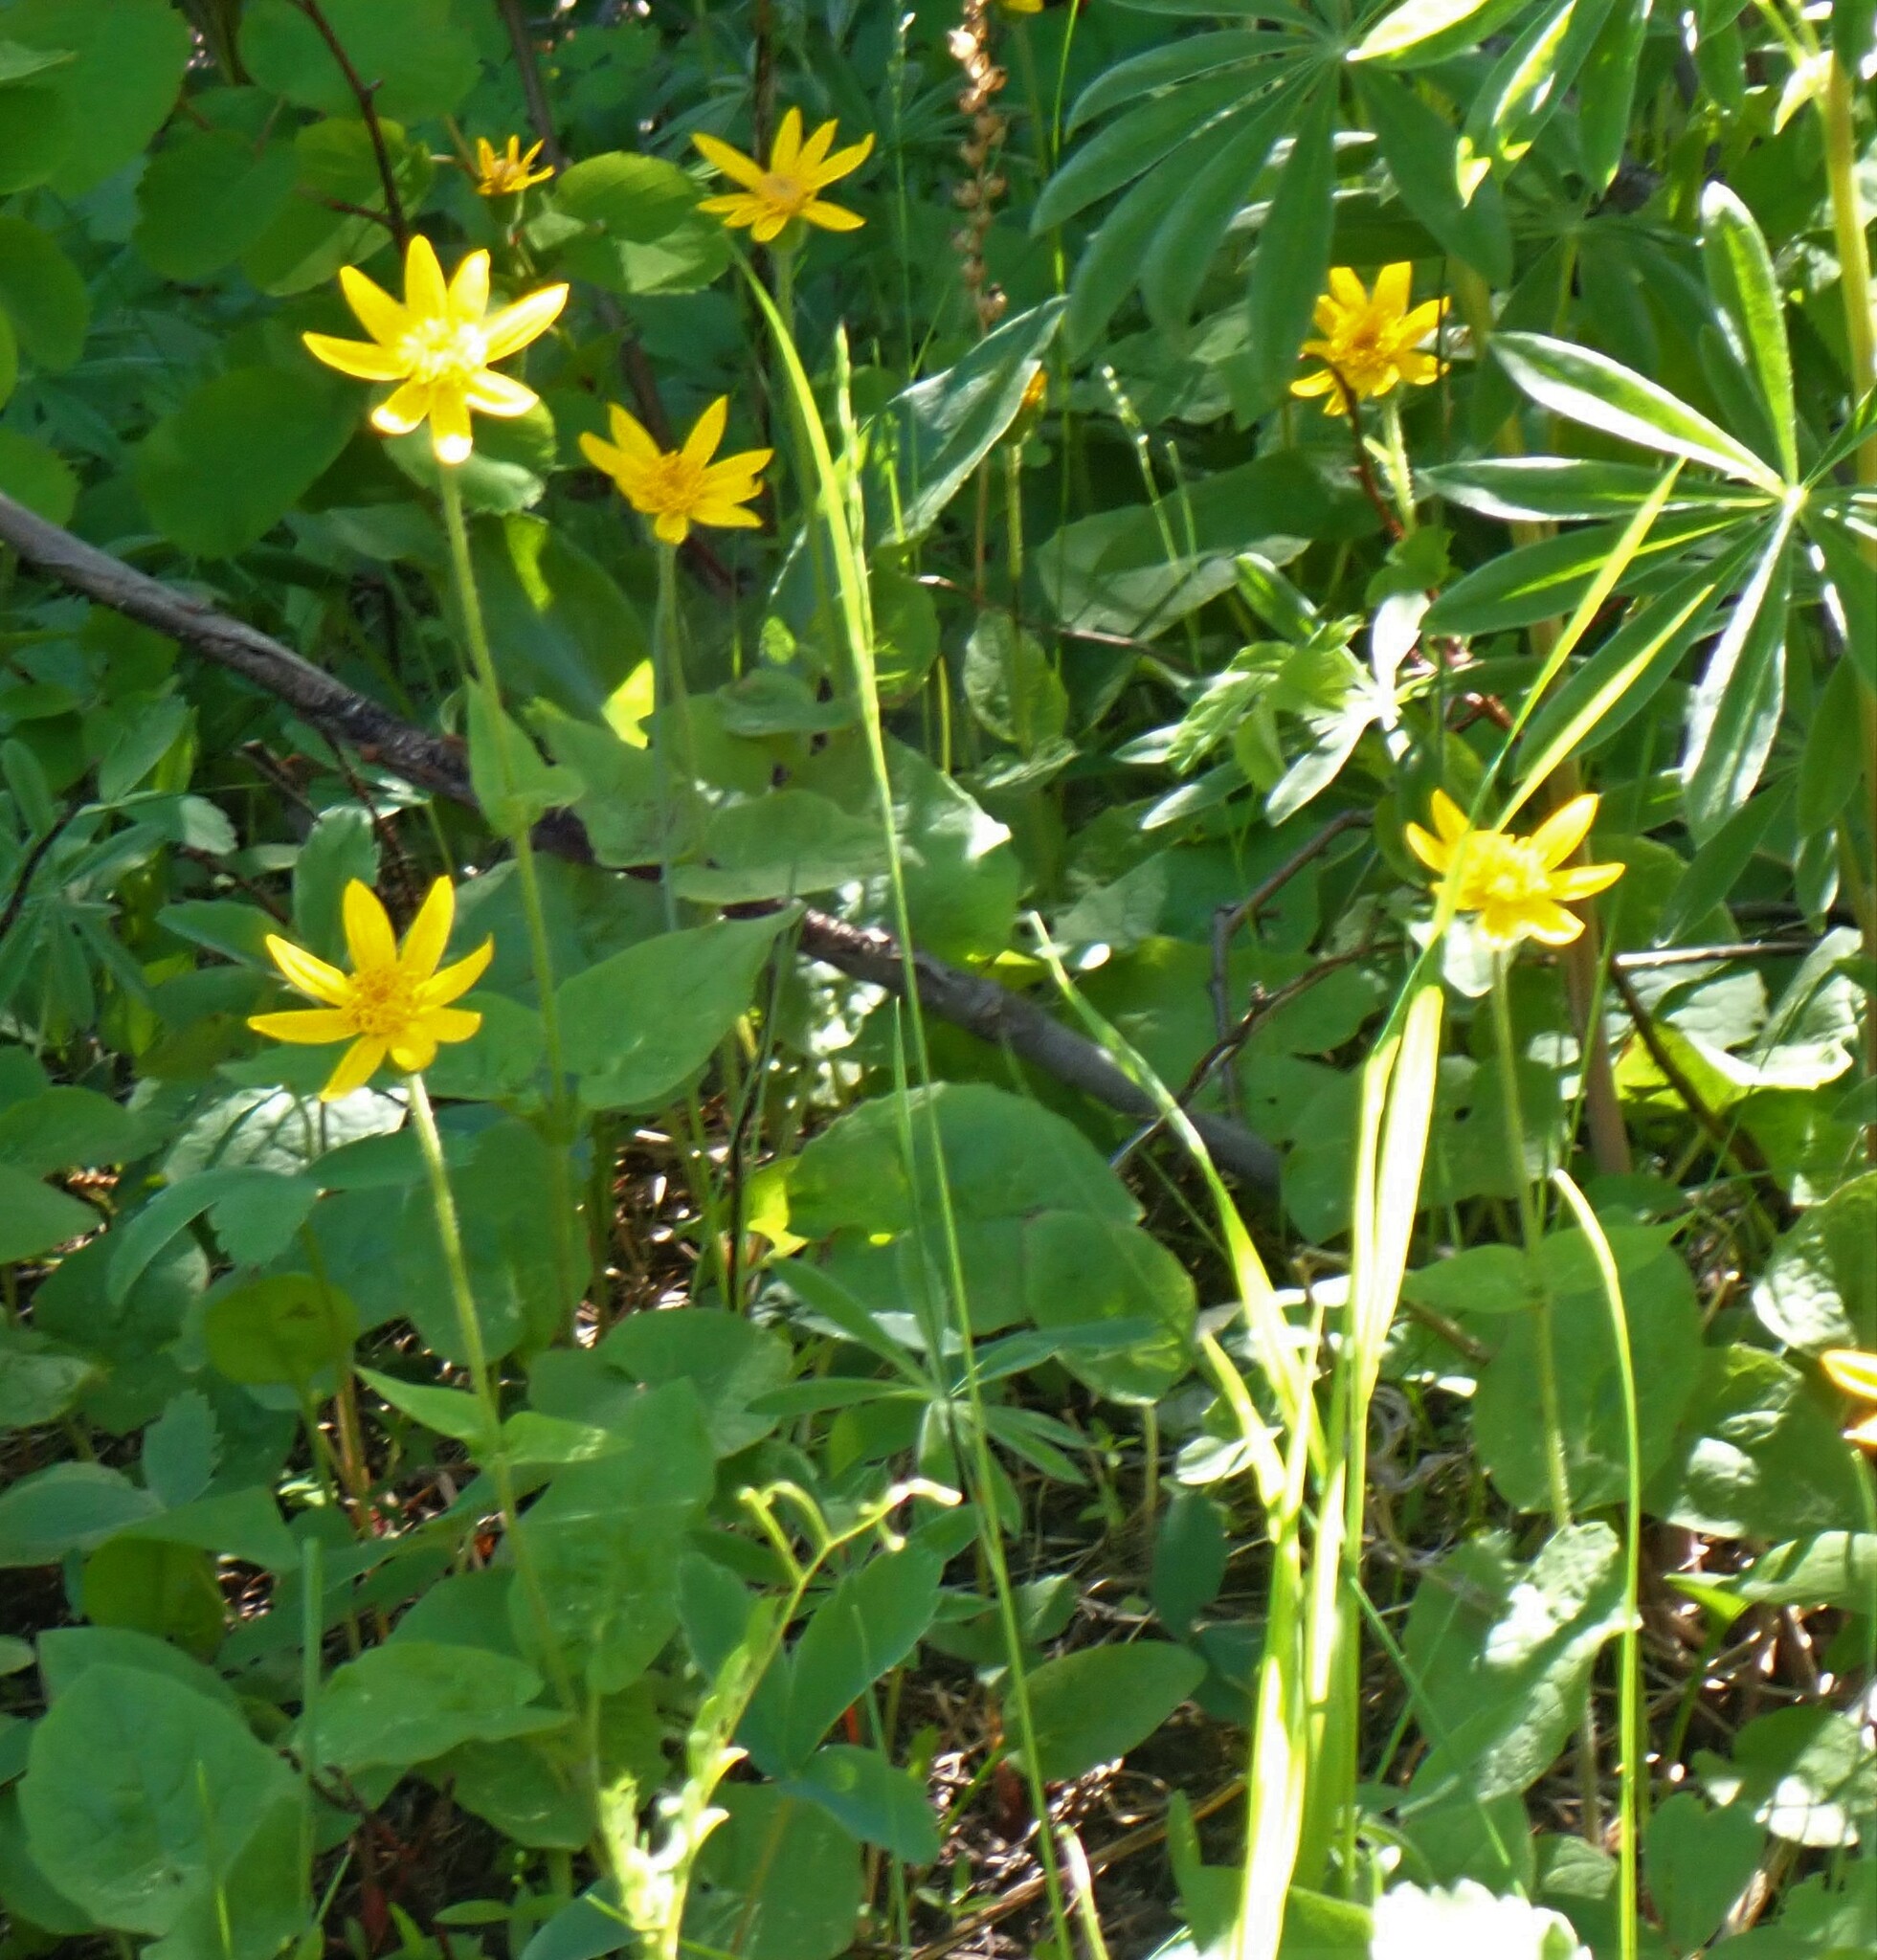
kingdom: Plantae
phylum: Tracheophyta
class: Magnoliopsida
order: Asterales
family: Asteraceae
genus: Arnica
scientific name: Arnica cordifolia
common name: Heart-leaf arnica
